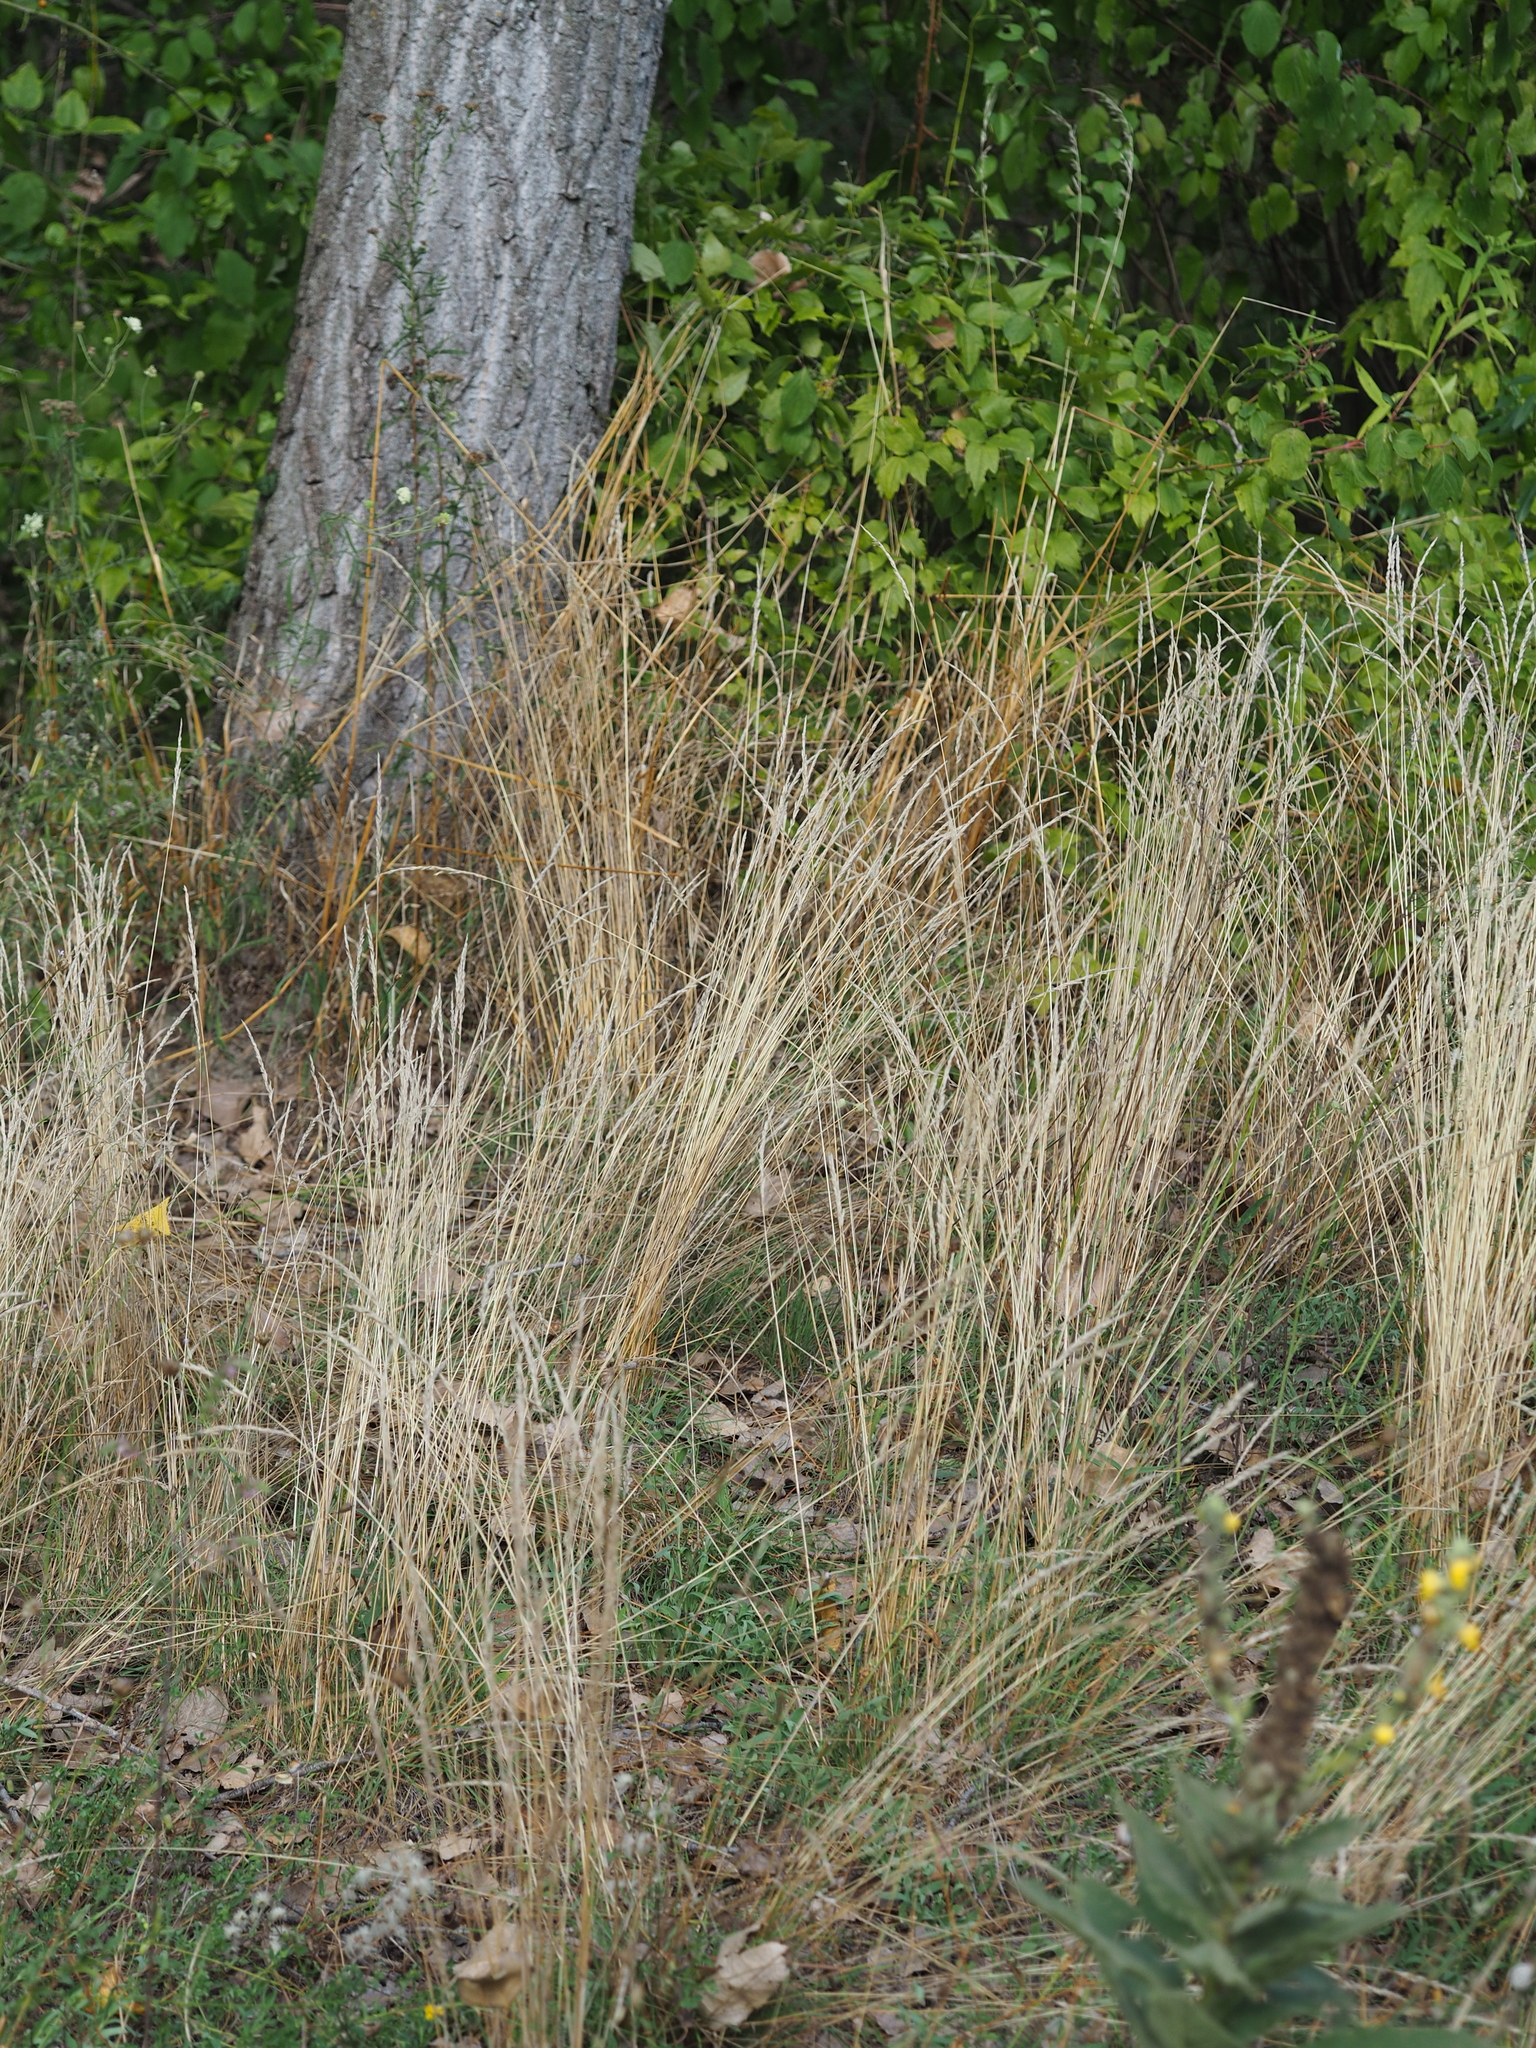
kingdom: Plantae
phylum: Tracheophyta
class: Liliopsida
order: Poales
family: Poaceae
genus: Koeleria
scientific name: Koeleria pyramidata
